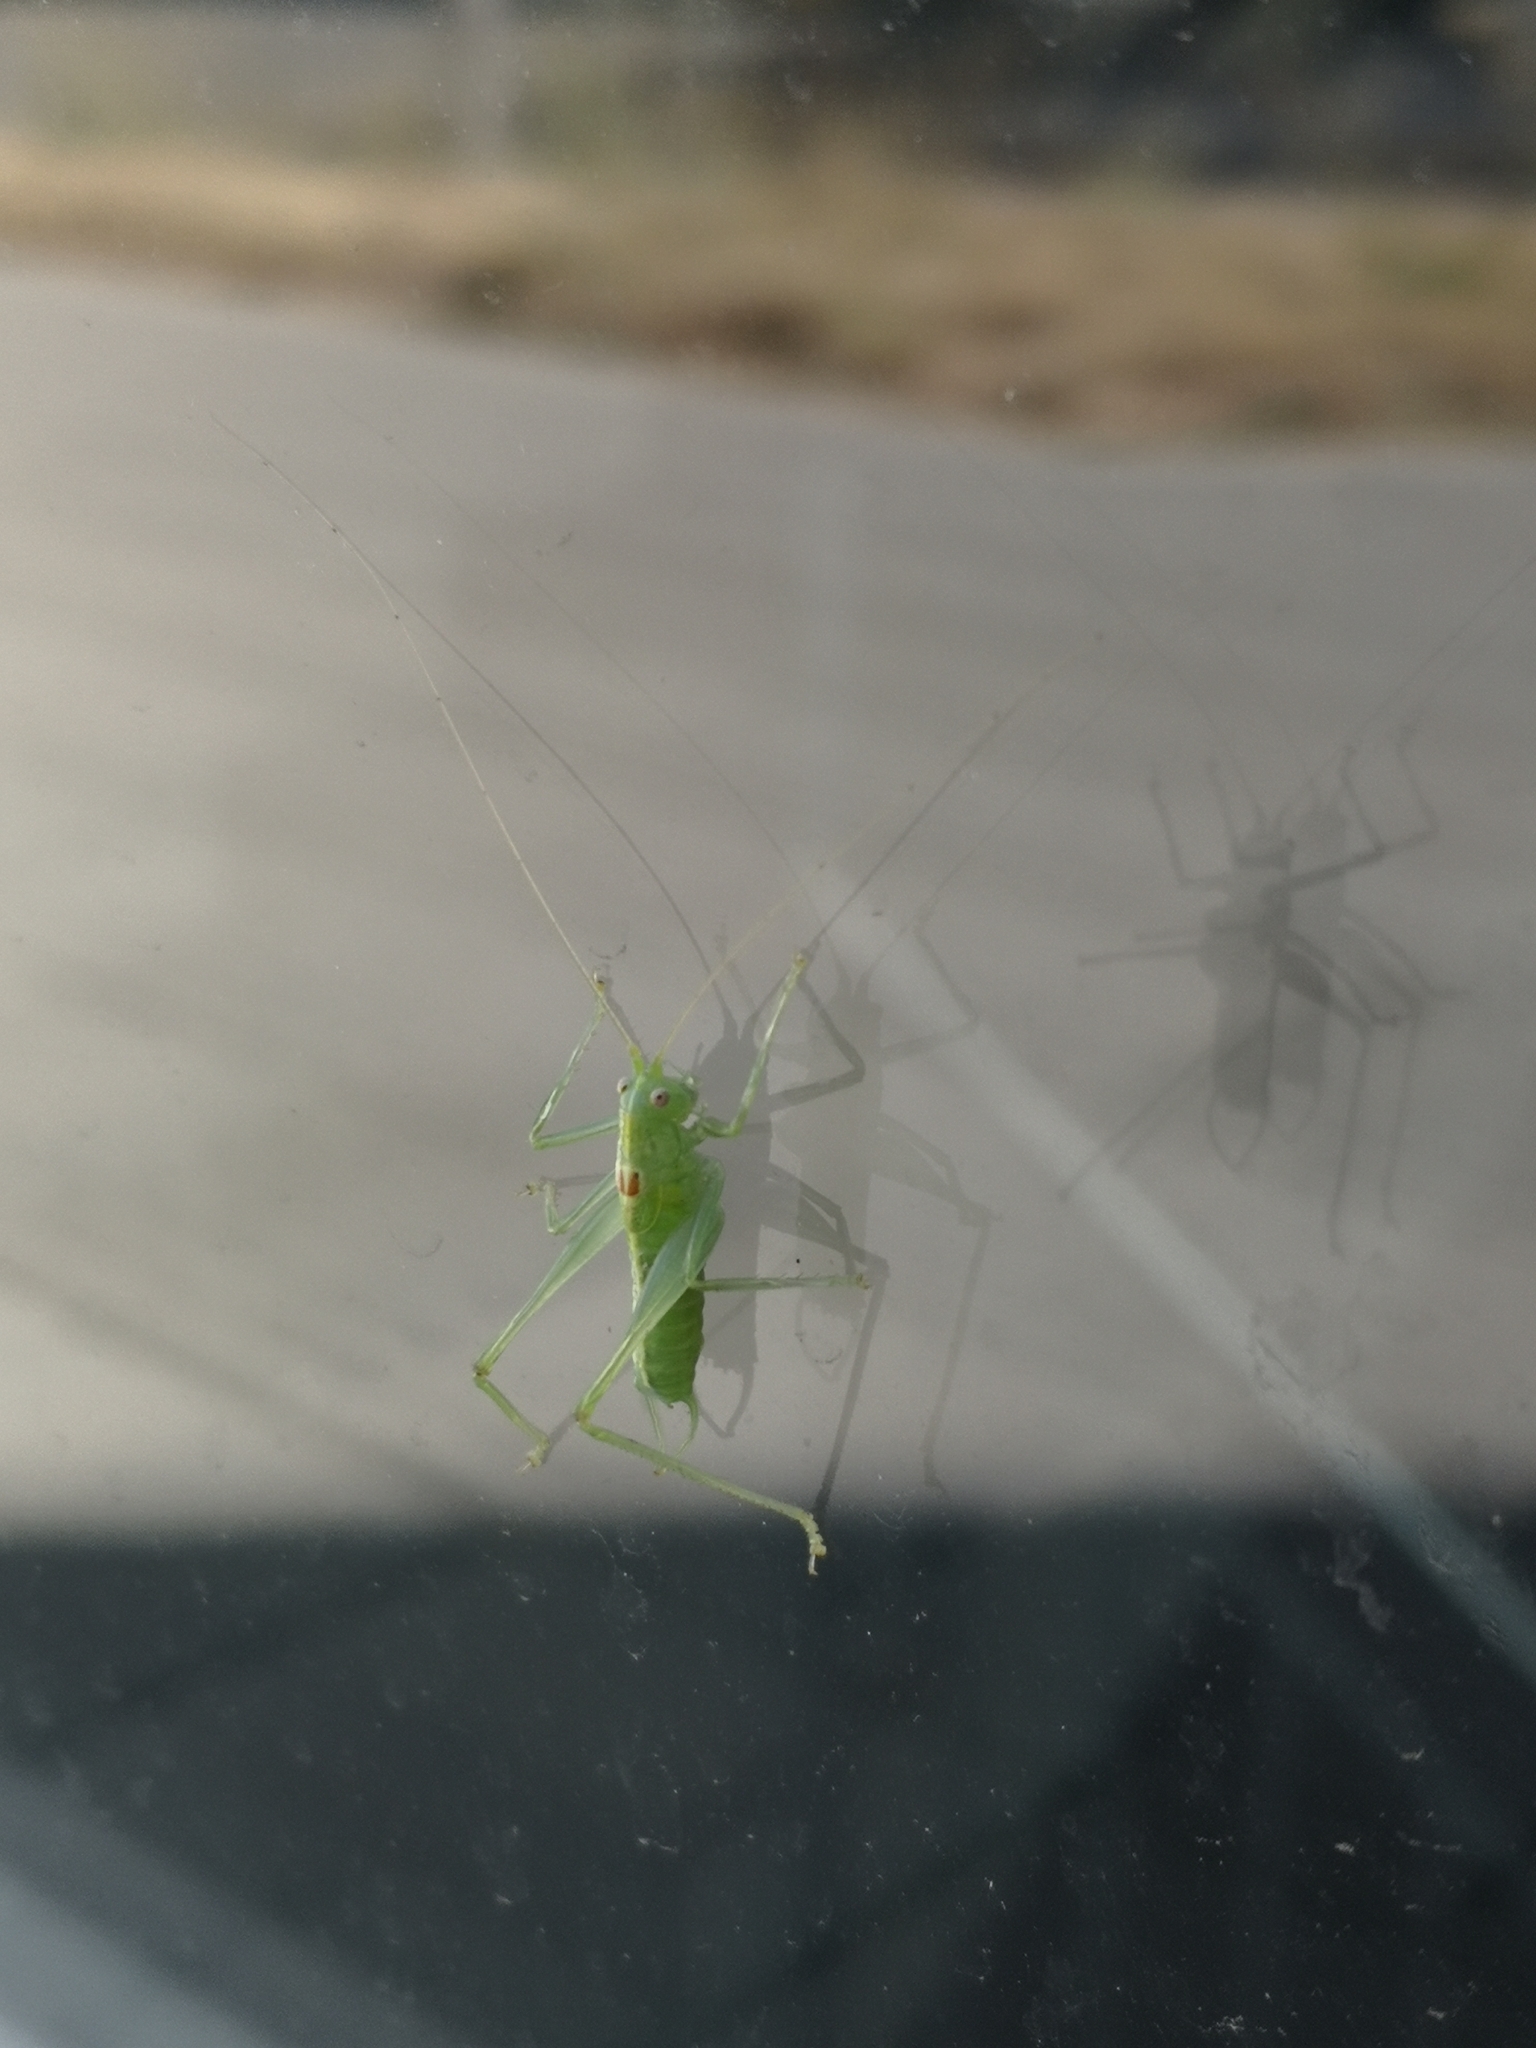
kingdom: Animalia
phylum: Arthropoda
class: Insecta
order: Orthoptera
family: Tettigoniidae
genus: Meconema
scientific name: Meconema meridionale
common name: Southern oak bush-cricket
